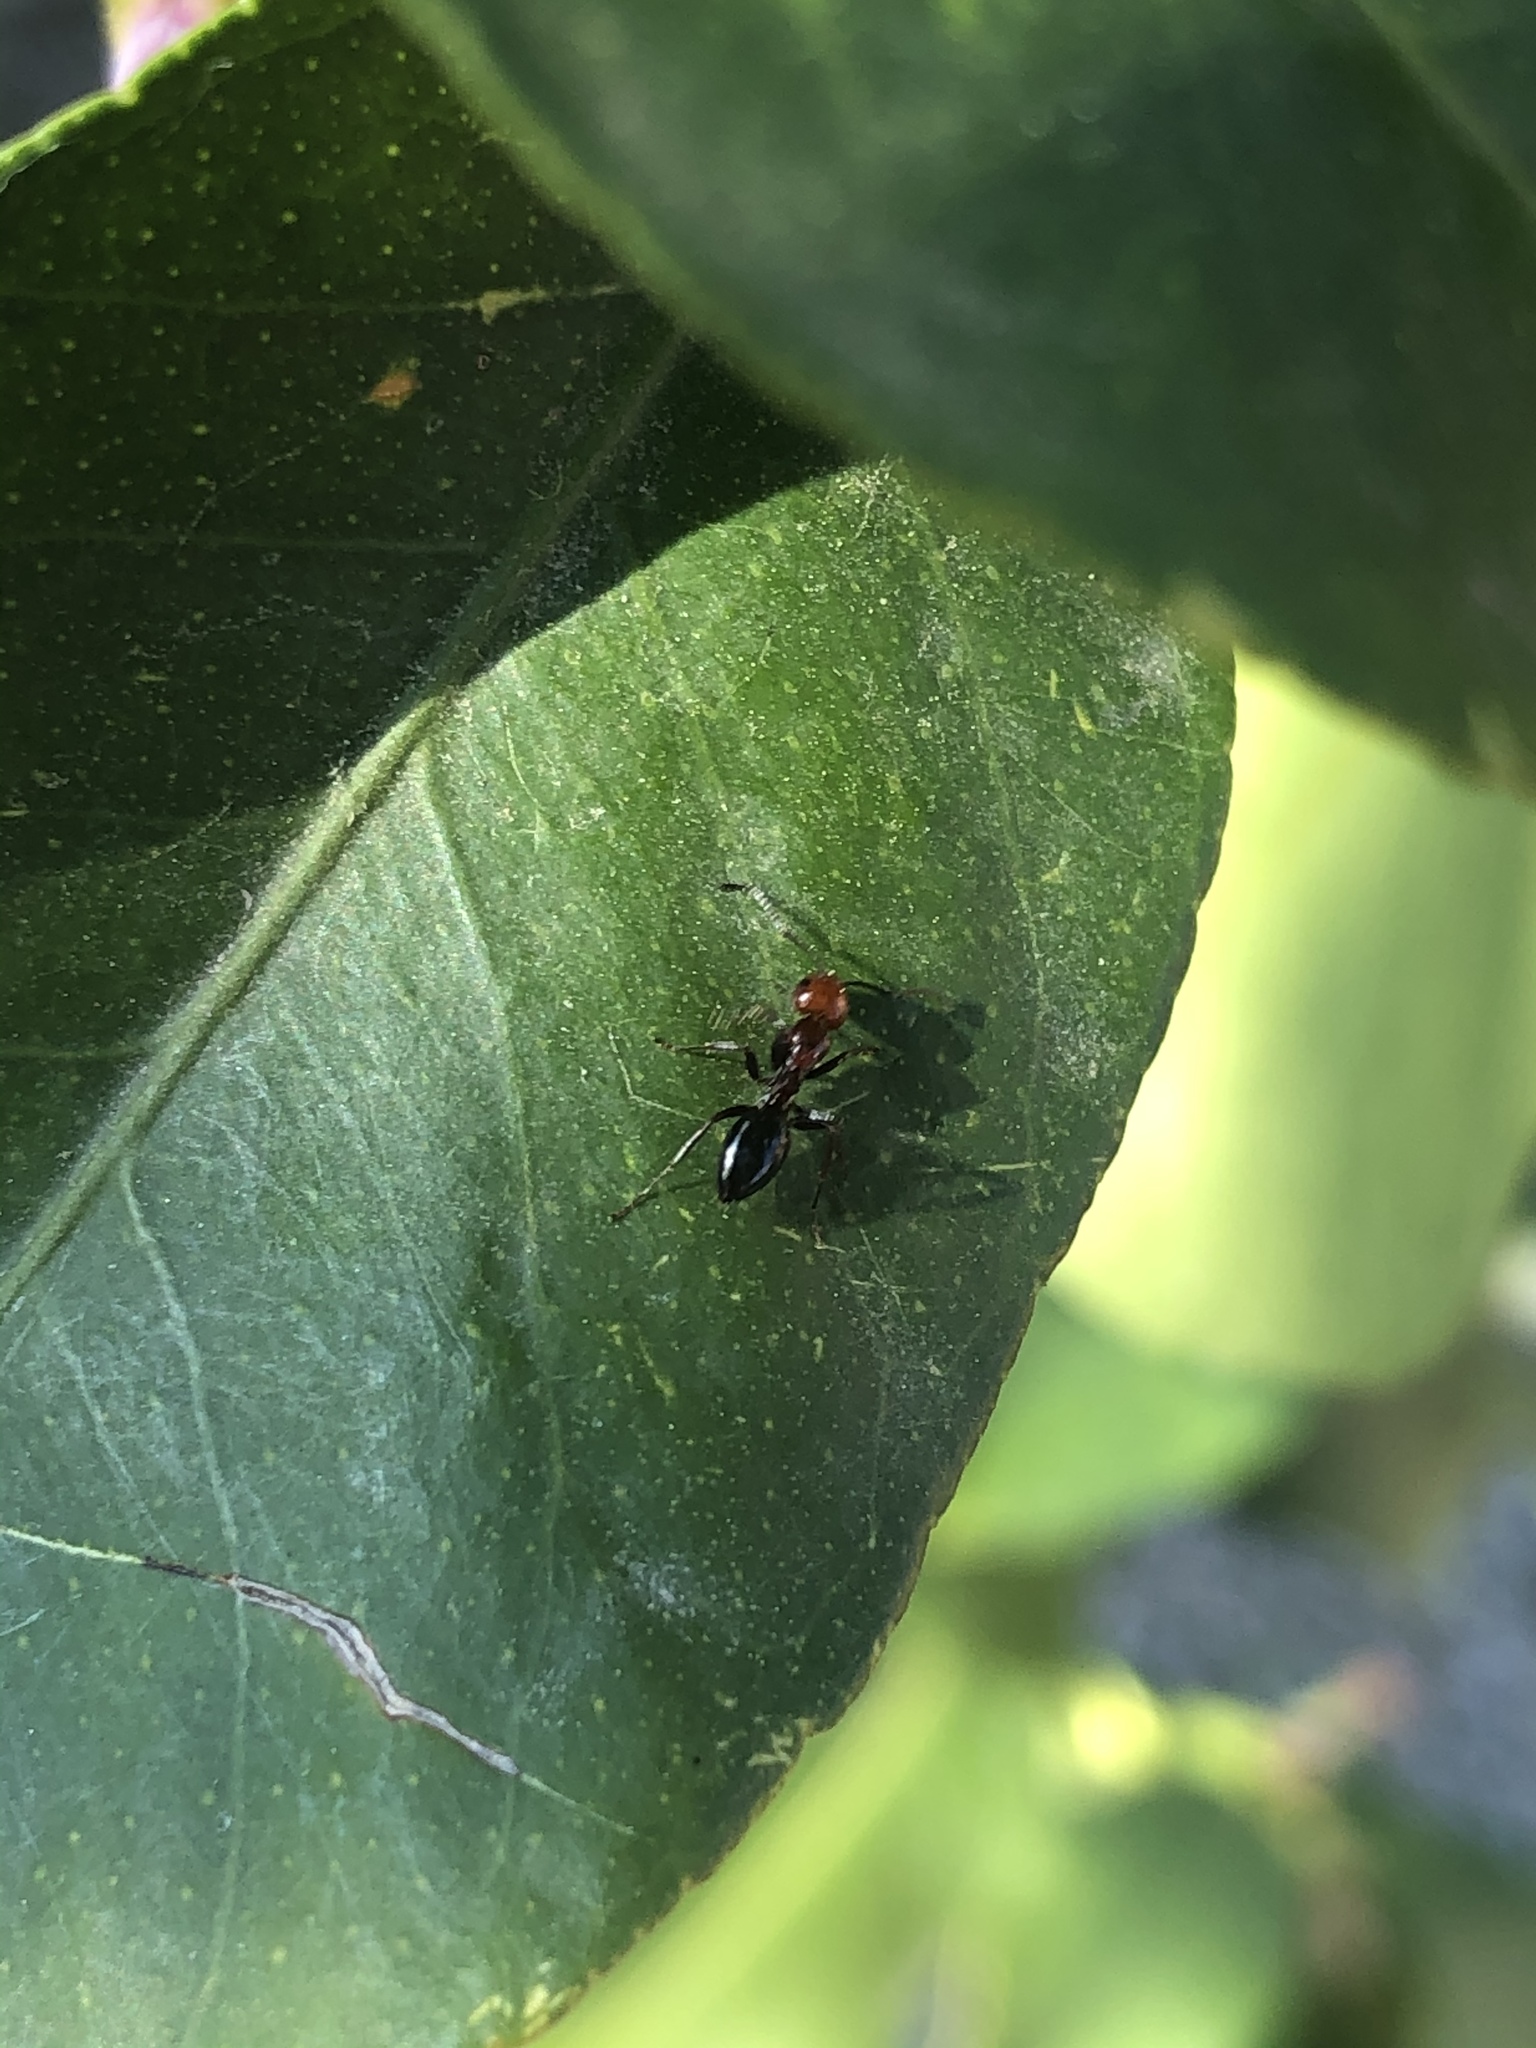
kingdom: Animalia
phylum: Arthropoda
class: Insecta
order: Hymenoptera
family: Formicidae
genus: Camponotus
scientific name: Camponotus lateralis
